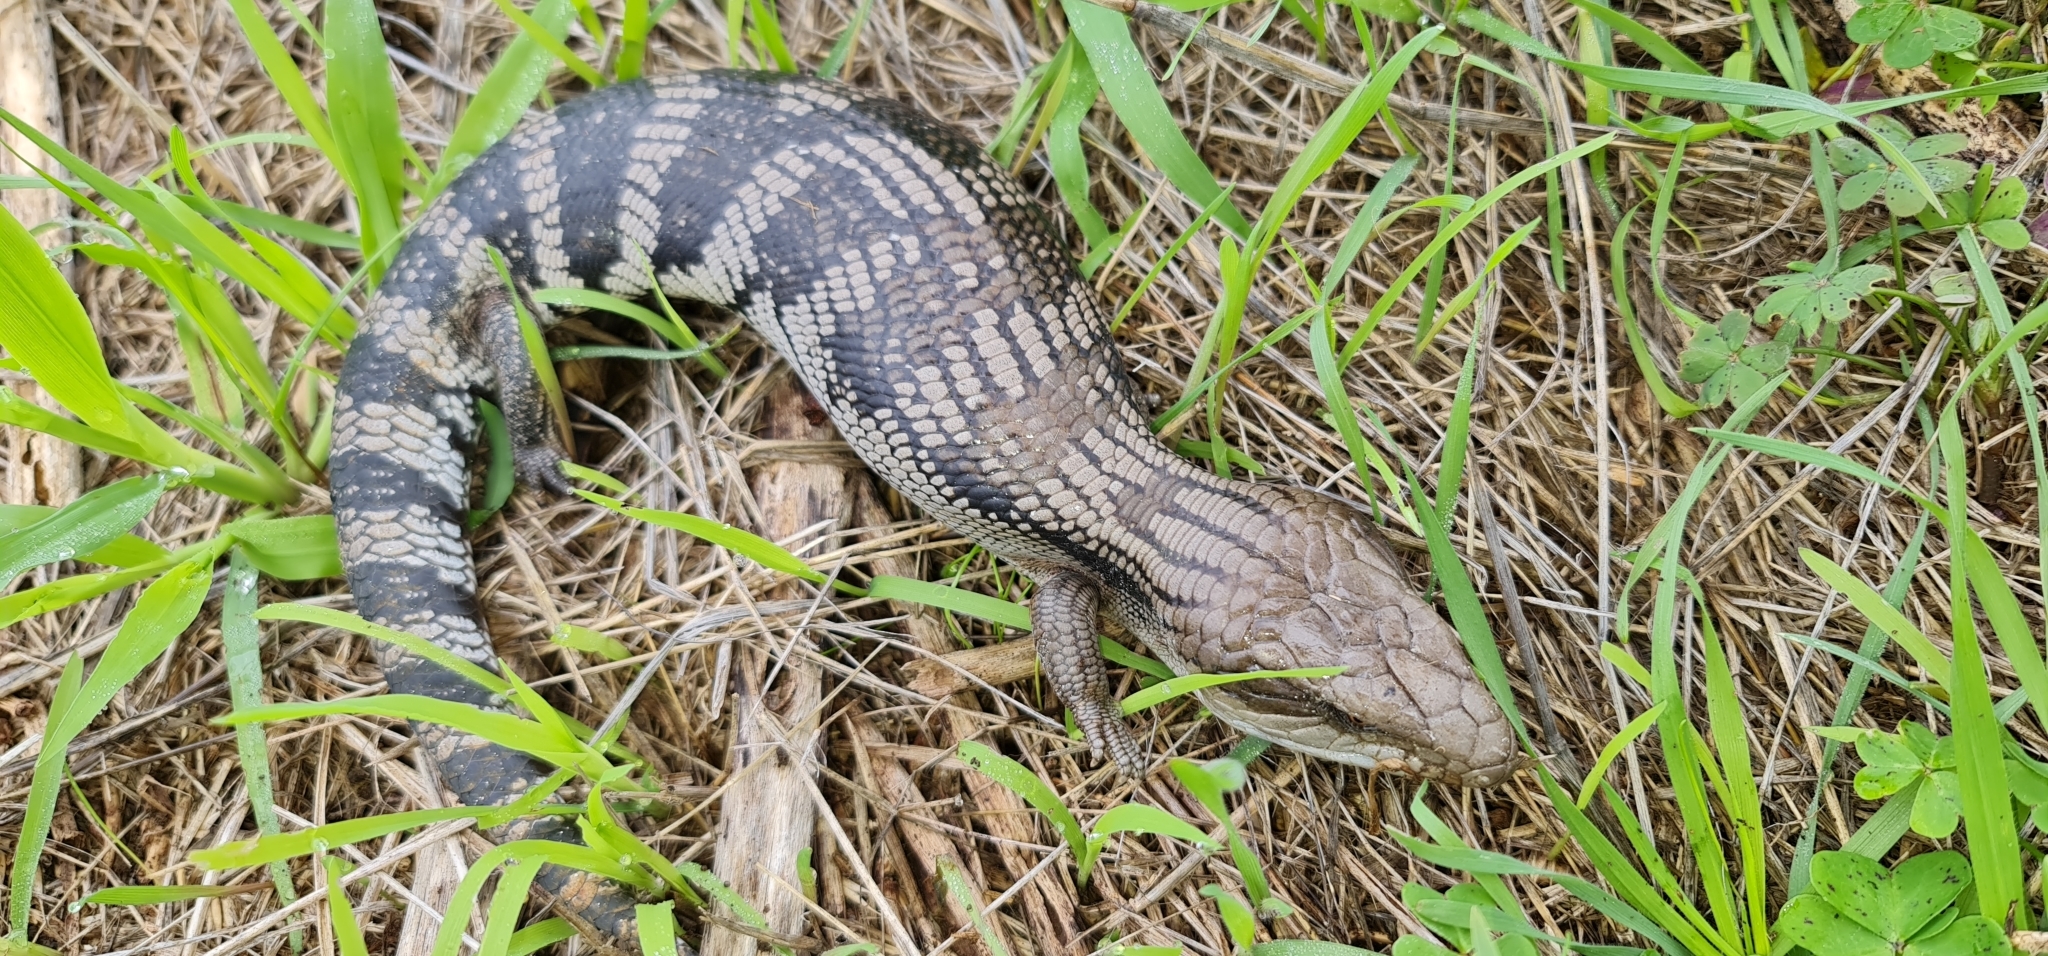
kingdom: Animalia
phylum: Chordata
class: Squamata
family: Scincidae
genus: Tiliqua
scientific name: Tiliqua scincoides
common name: Common bluetongue
